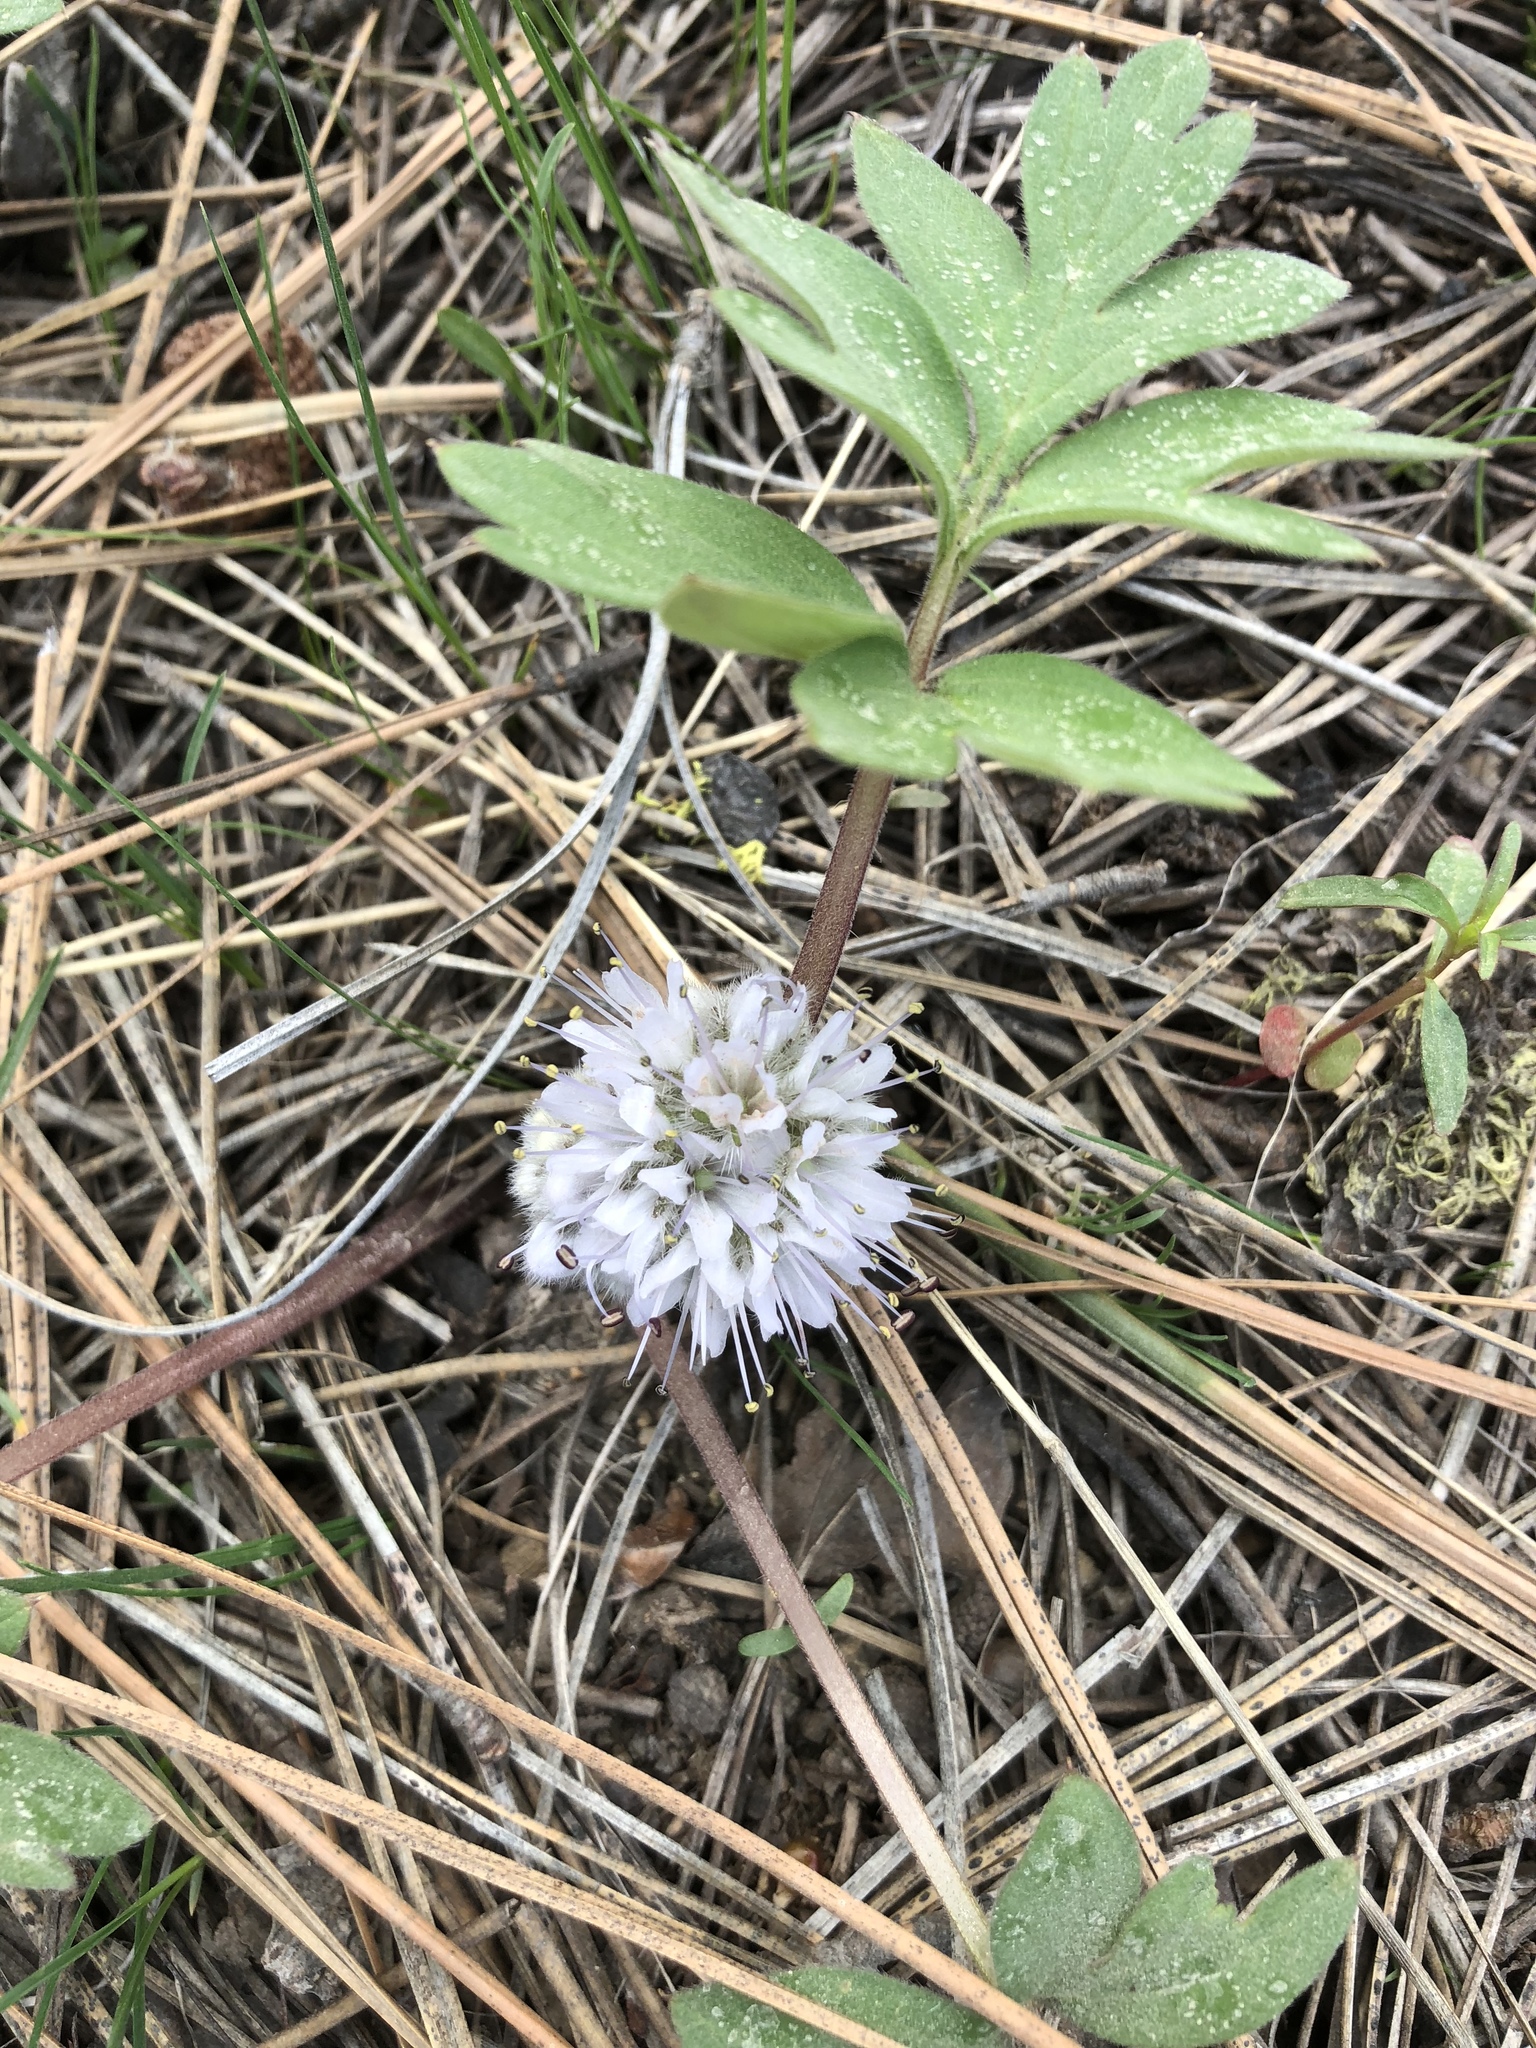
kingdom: Plantae
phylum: Tracheophyta
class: Magnoliopsida
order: Boraginales
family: Hydrophyllaceae
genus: Hydrophyllum
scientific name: Hydrophyllum capitatum
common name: Woollen-breeches
